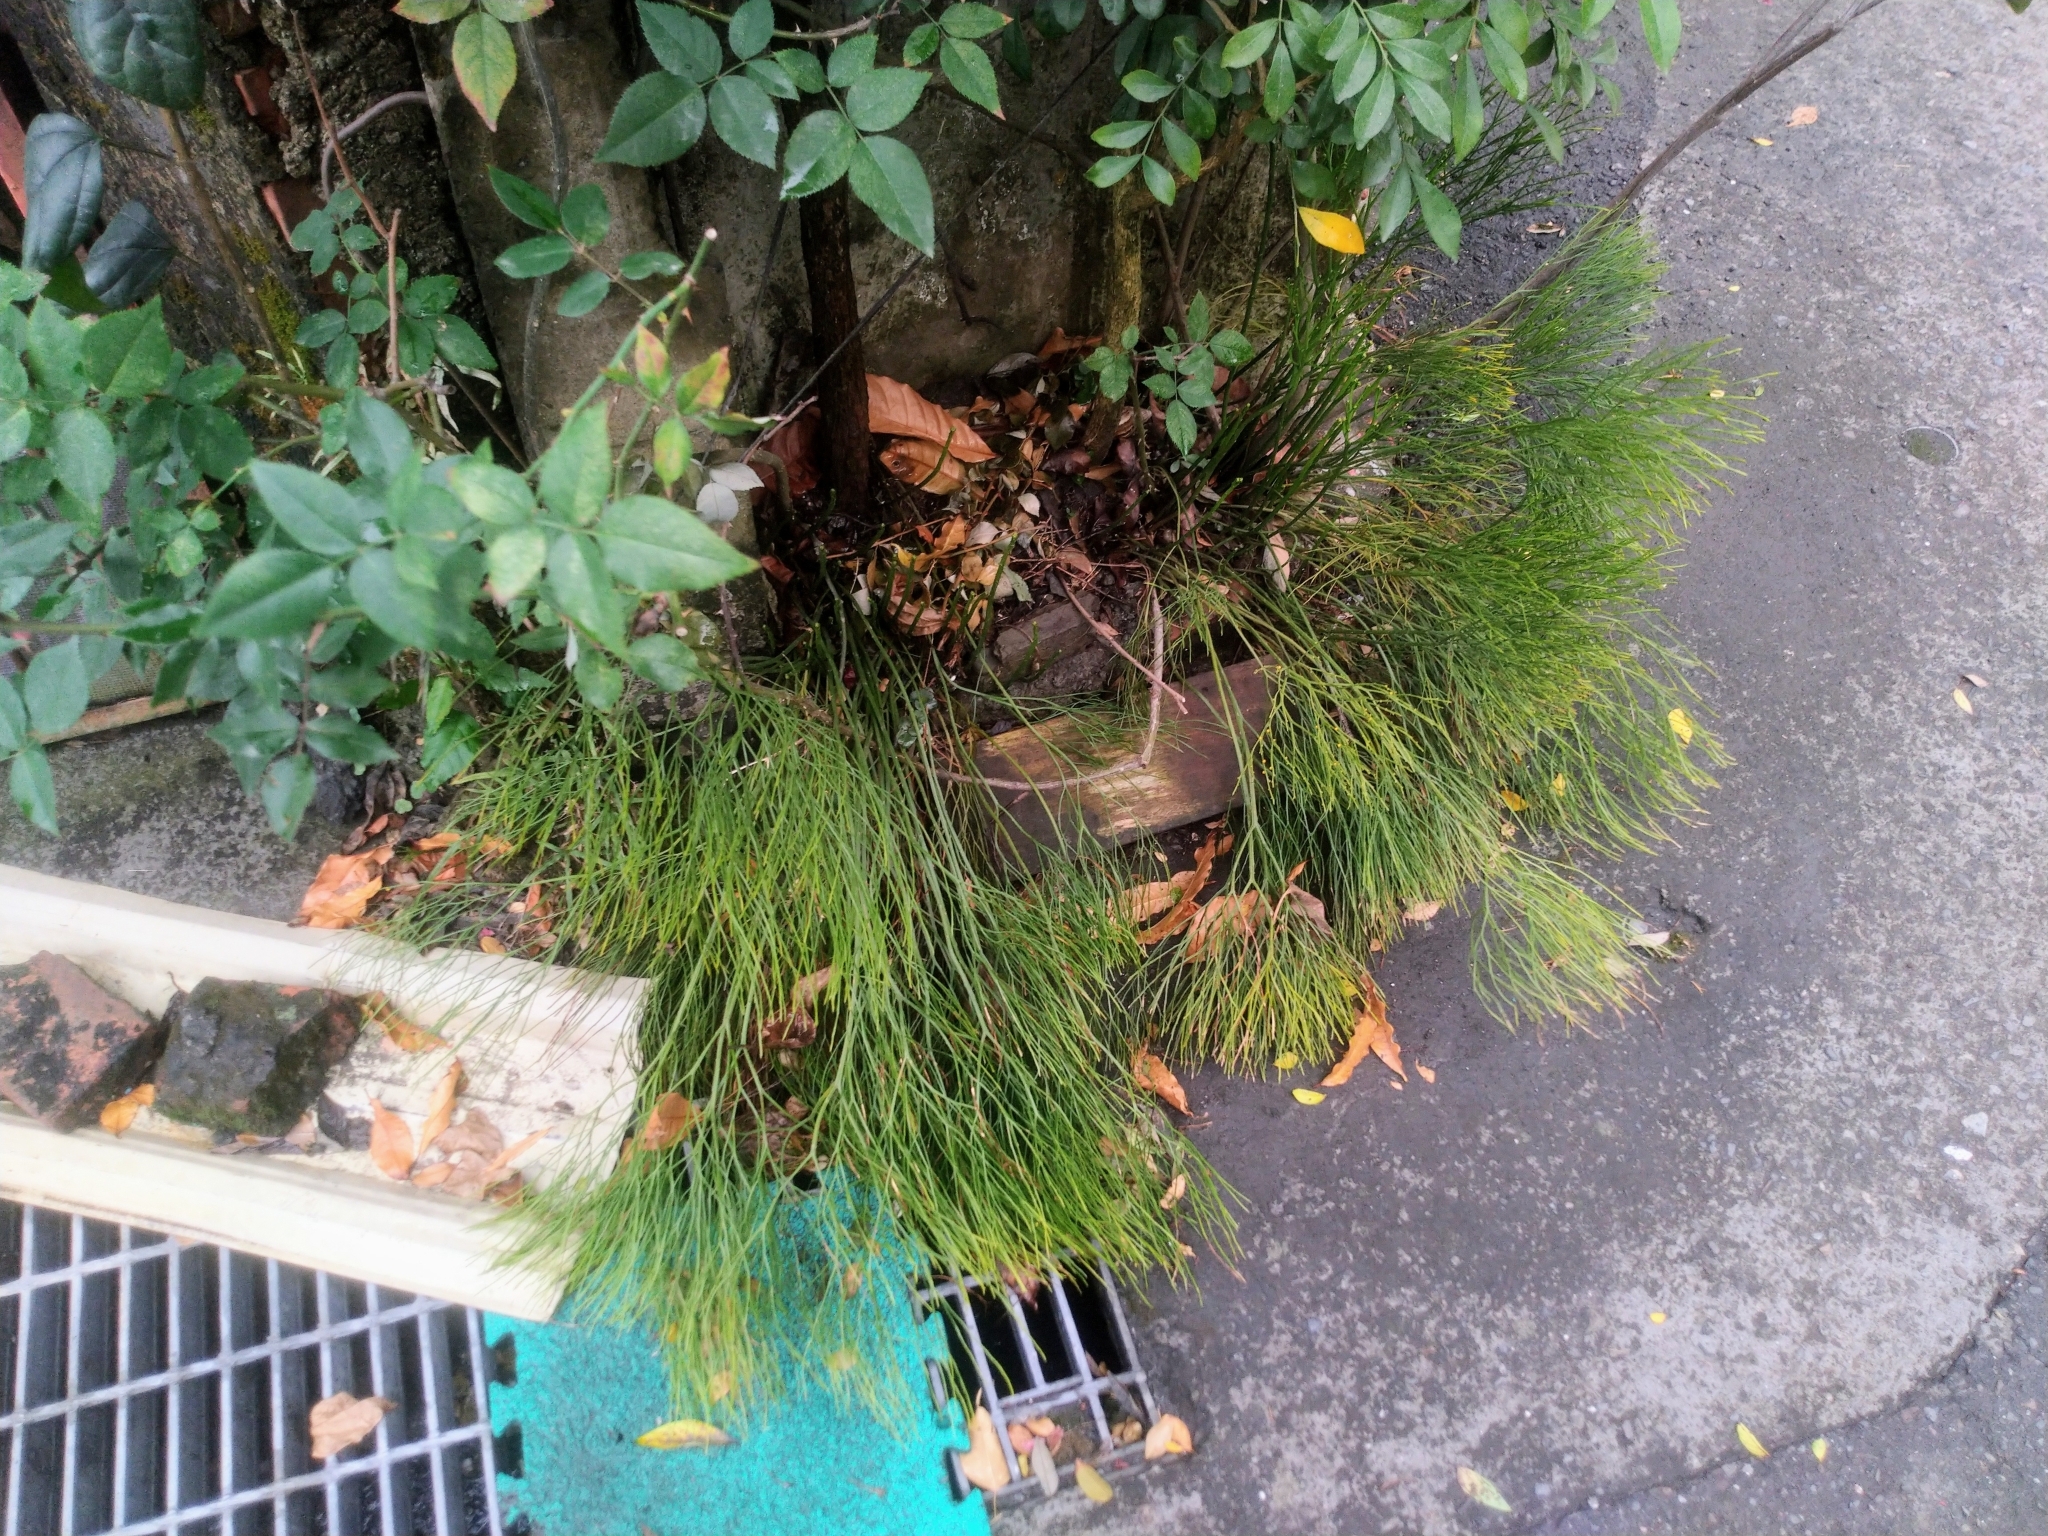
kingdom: Plantae
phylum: Tracheophyta
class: Polypodiopsida
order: Psilotales
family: Psilotaceae
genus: Psilotum
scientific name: Psilotum nudum
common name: Skeleton fork fern
